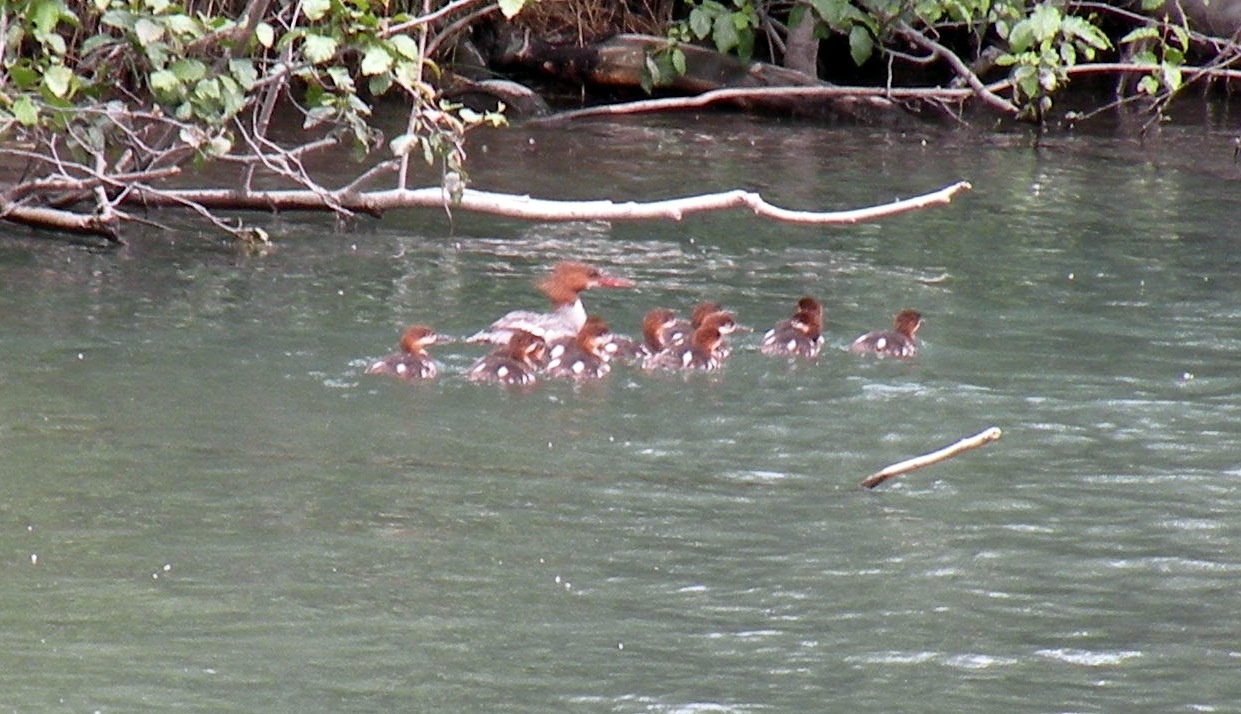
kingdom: Animalia
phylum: Chordata
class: Aves
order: Anseriformes
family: Anatidae
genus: Mergus
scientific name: Mergus merganser
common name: Common merganser
